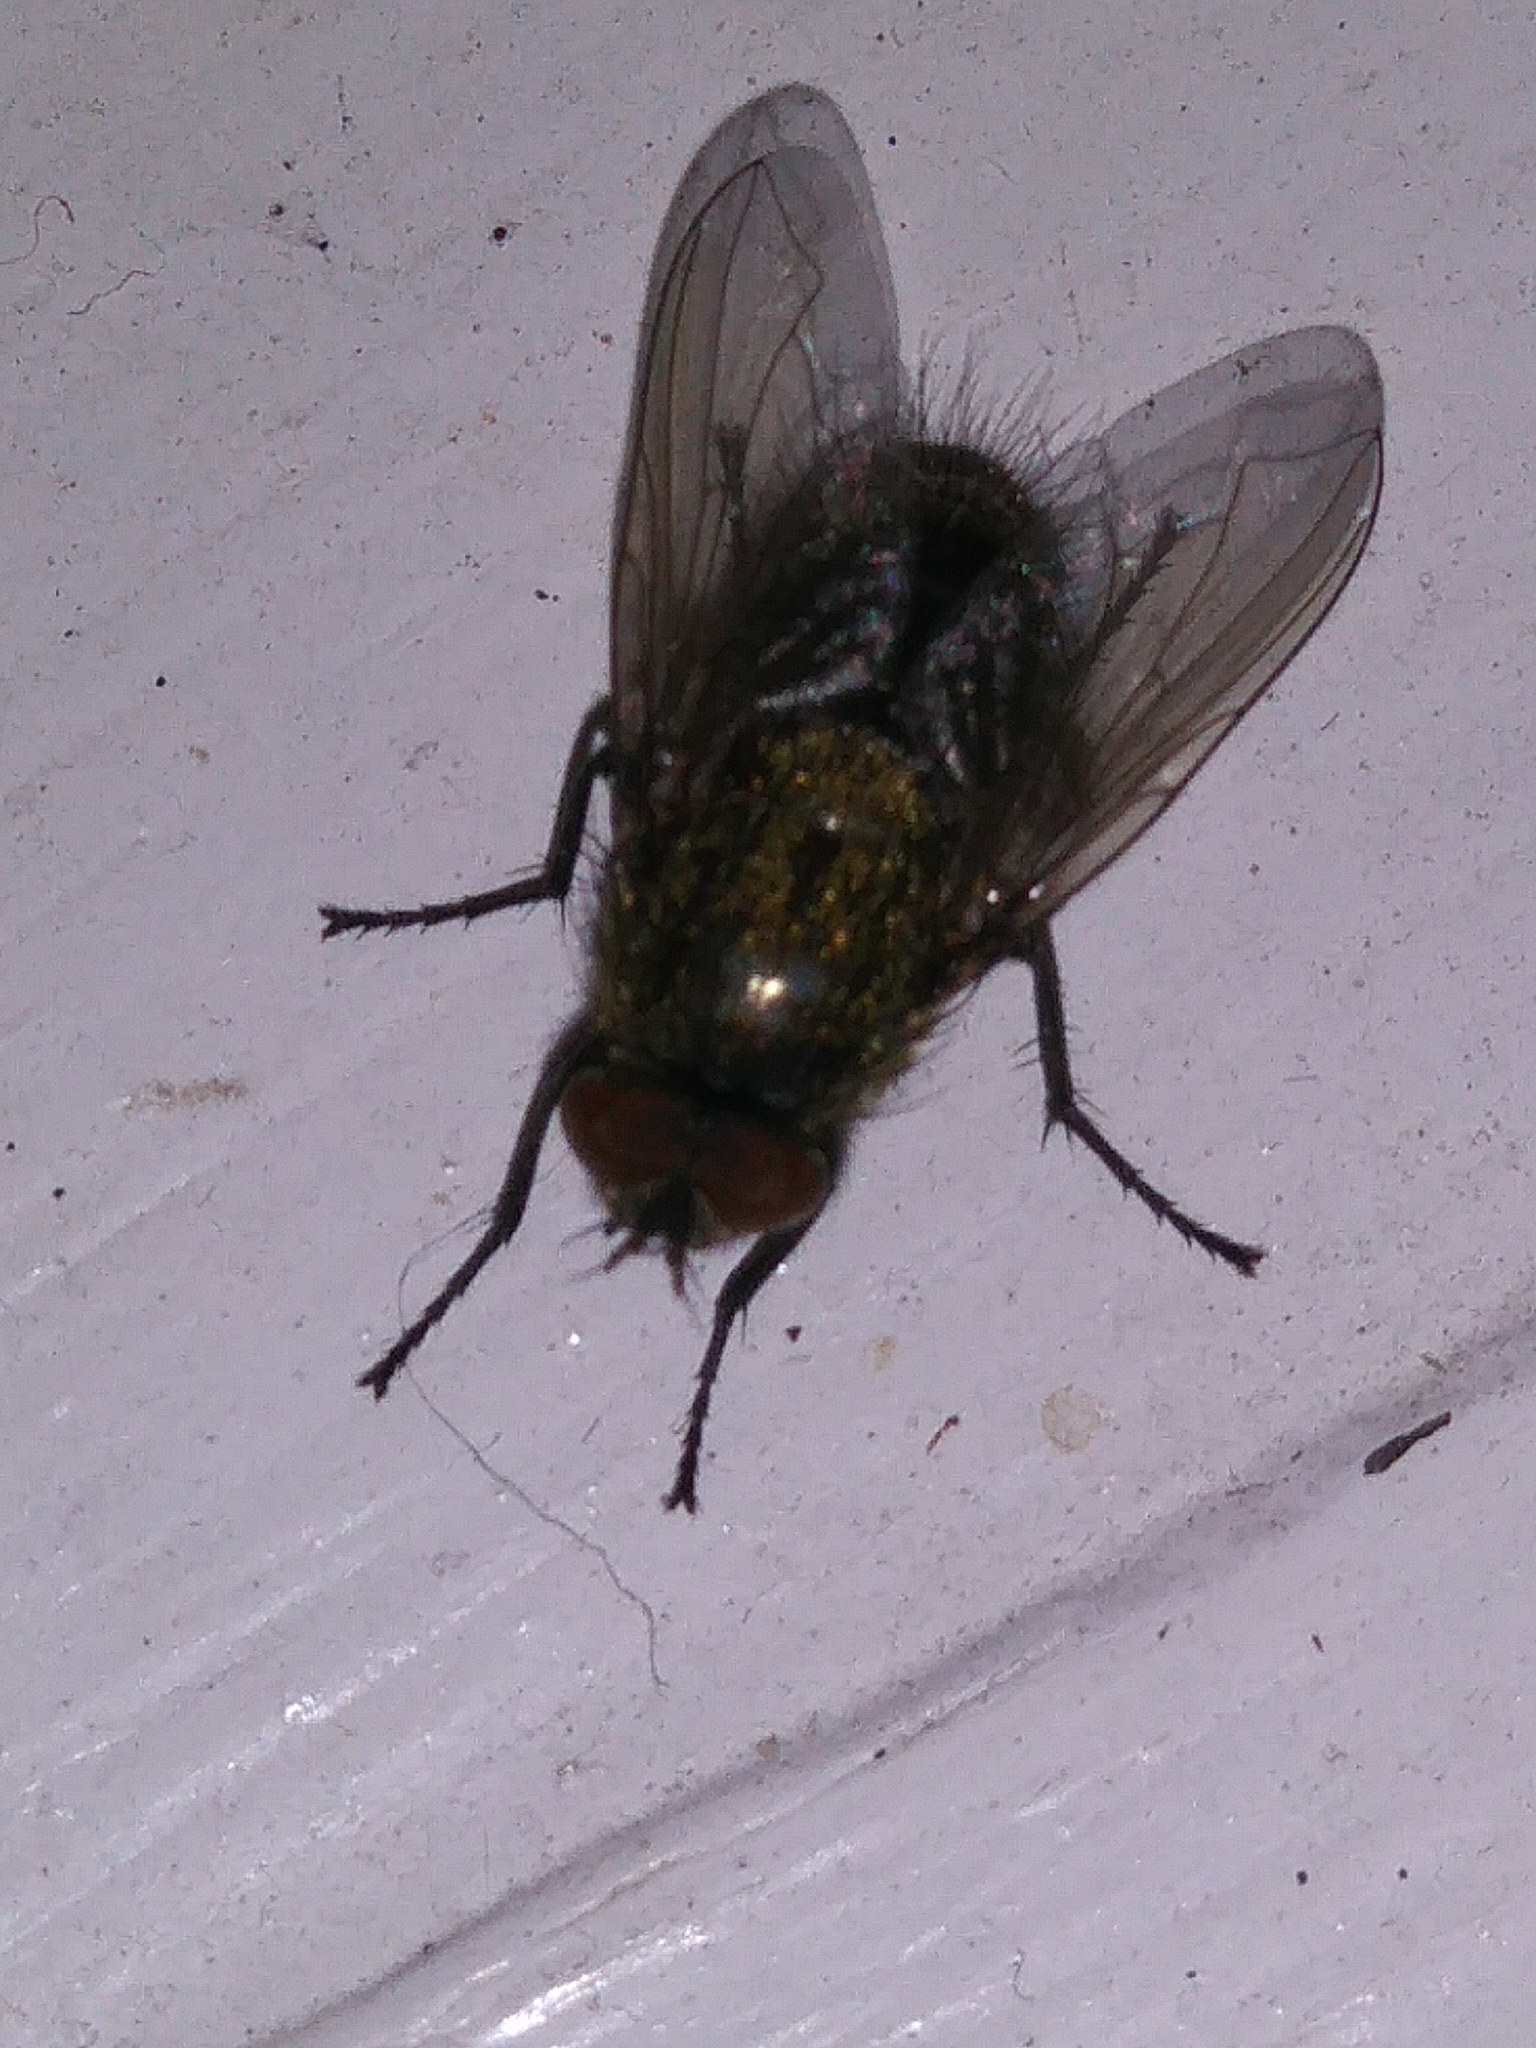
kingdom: Animalia
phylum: Arthropoda
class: Insecta
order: Diptera
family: Polleniidae
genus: Pollenia
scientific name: Pollenia
